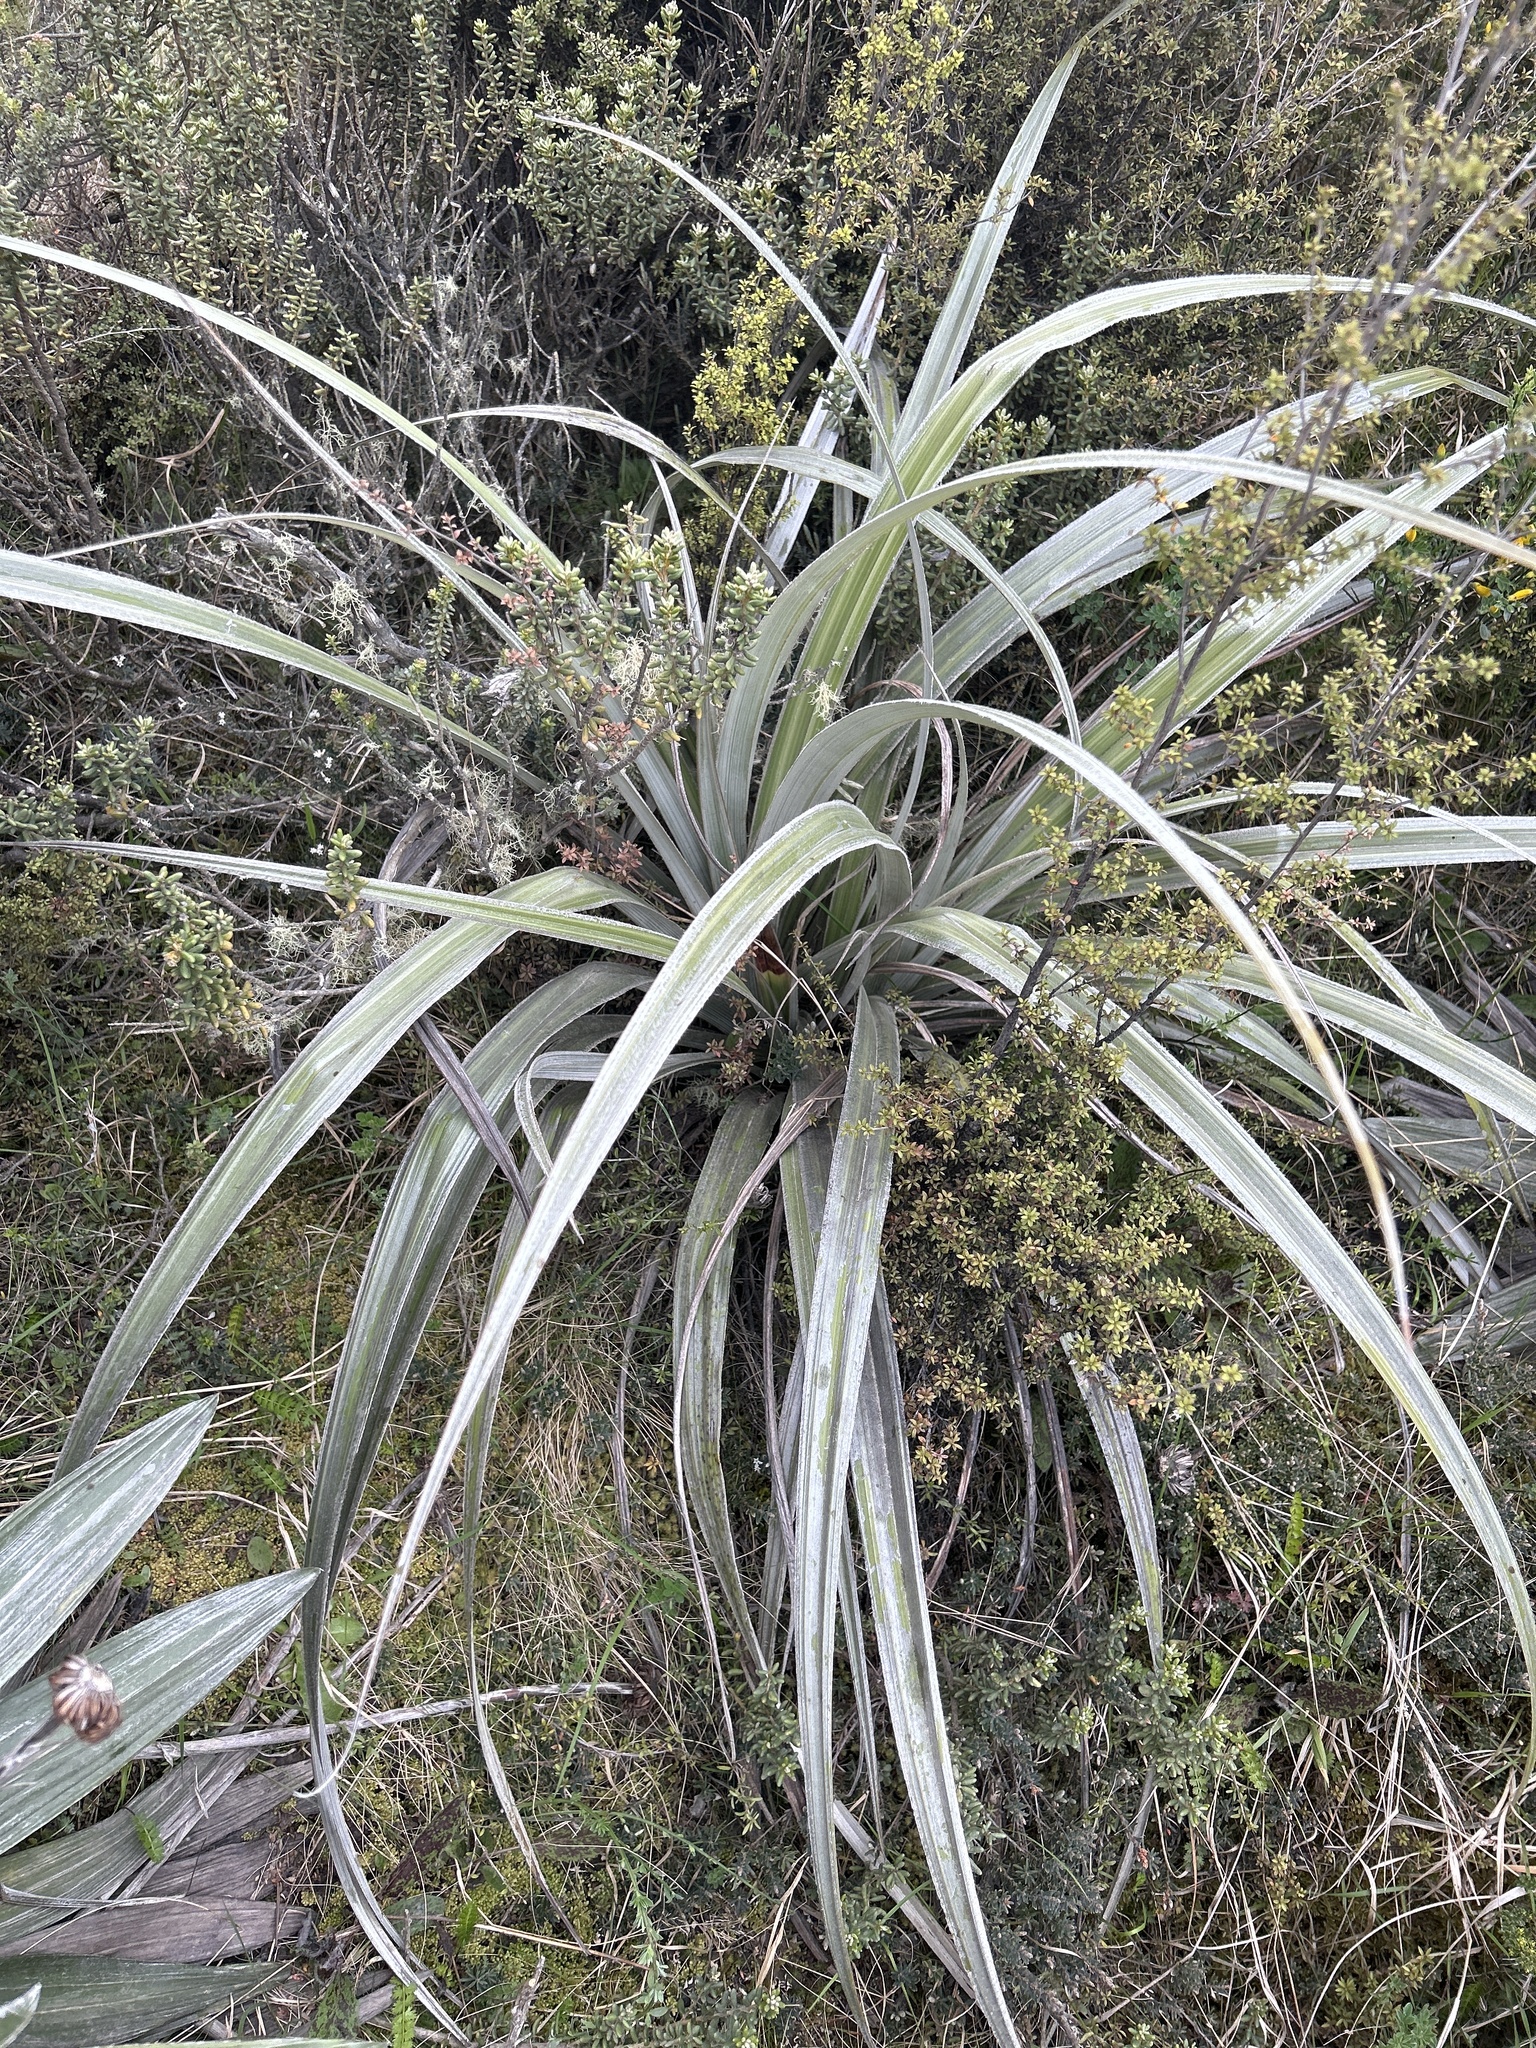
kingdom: Plantae
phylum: Tracheophyta
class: Liliopsida
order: Asparagales
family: Asteliaceae
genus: Astelia
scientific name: Astelia nervosa
